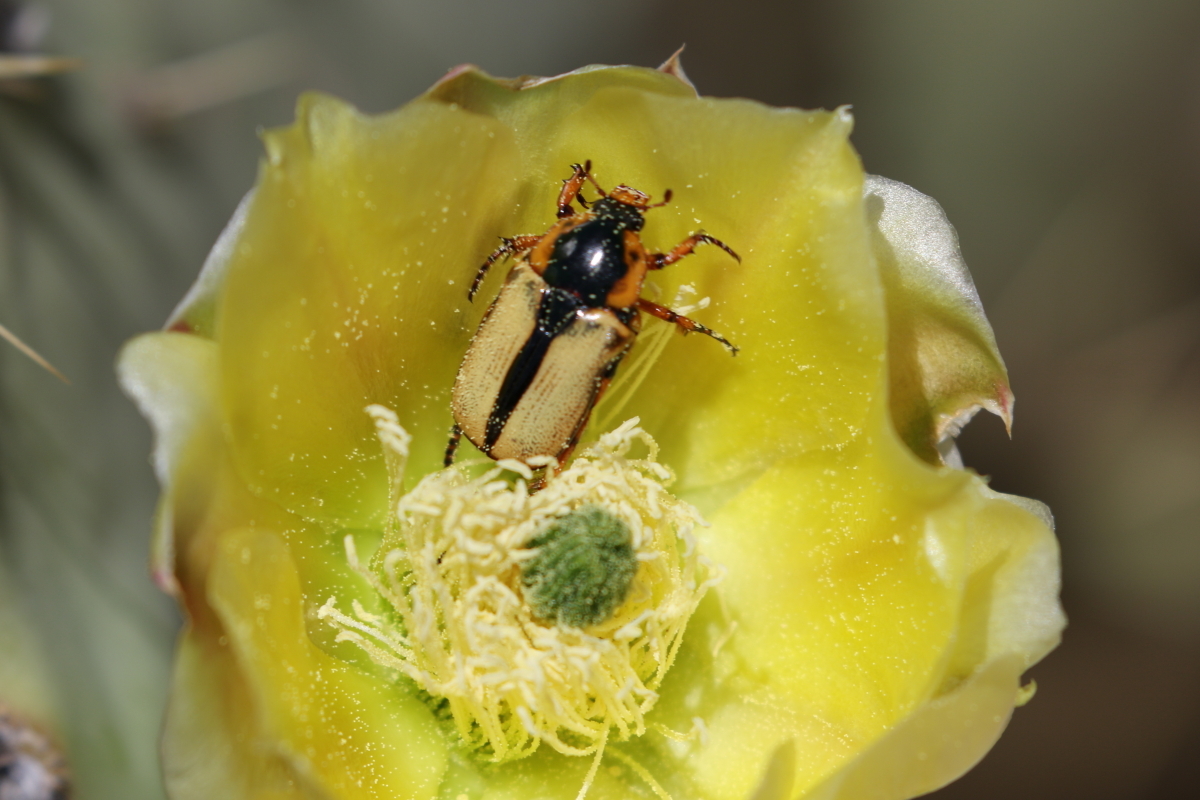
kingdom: Animalia
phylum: Arthropoda
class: Insecta
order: Coleoptera
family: Scarabaeidae
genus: Chlorixanthe
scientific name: Chlorixanthe chapini
